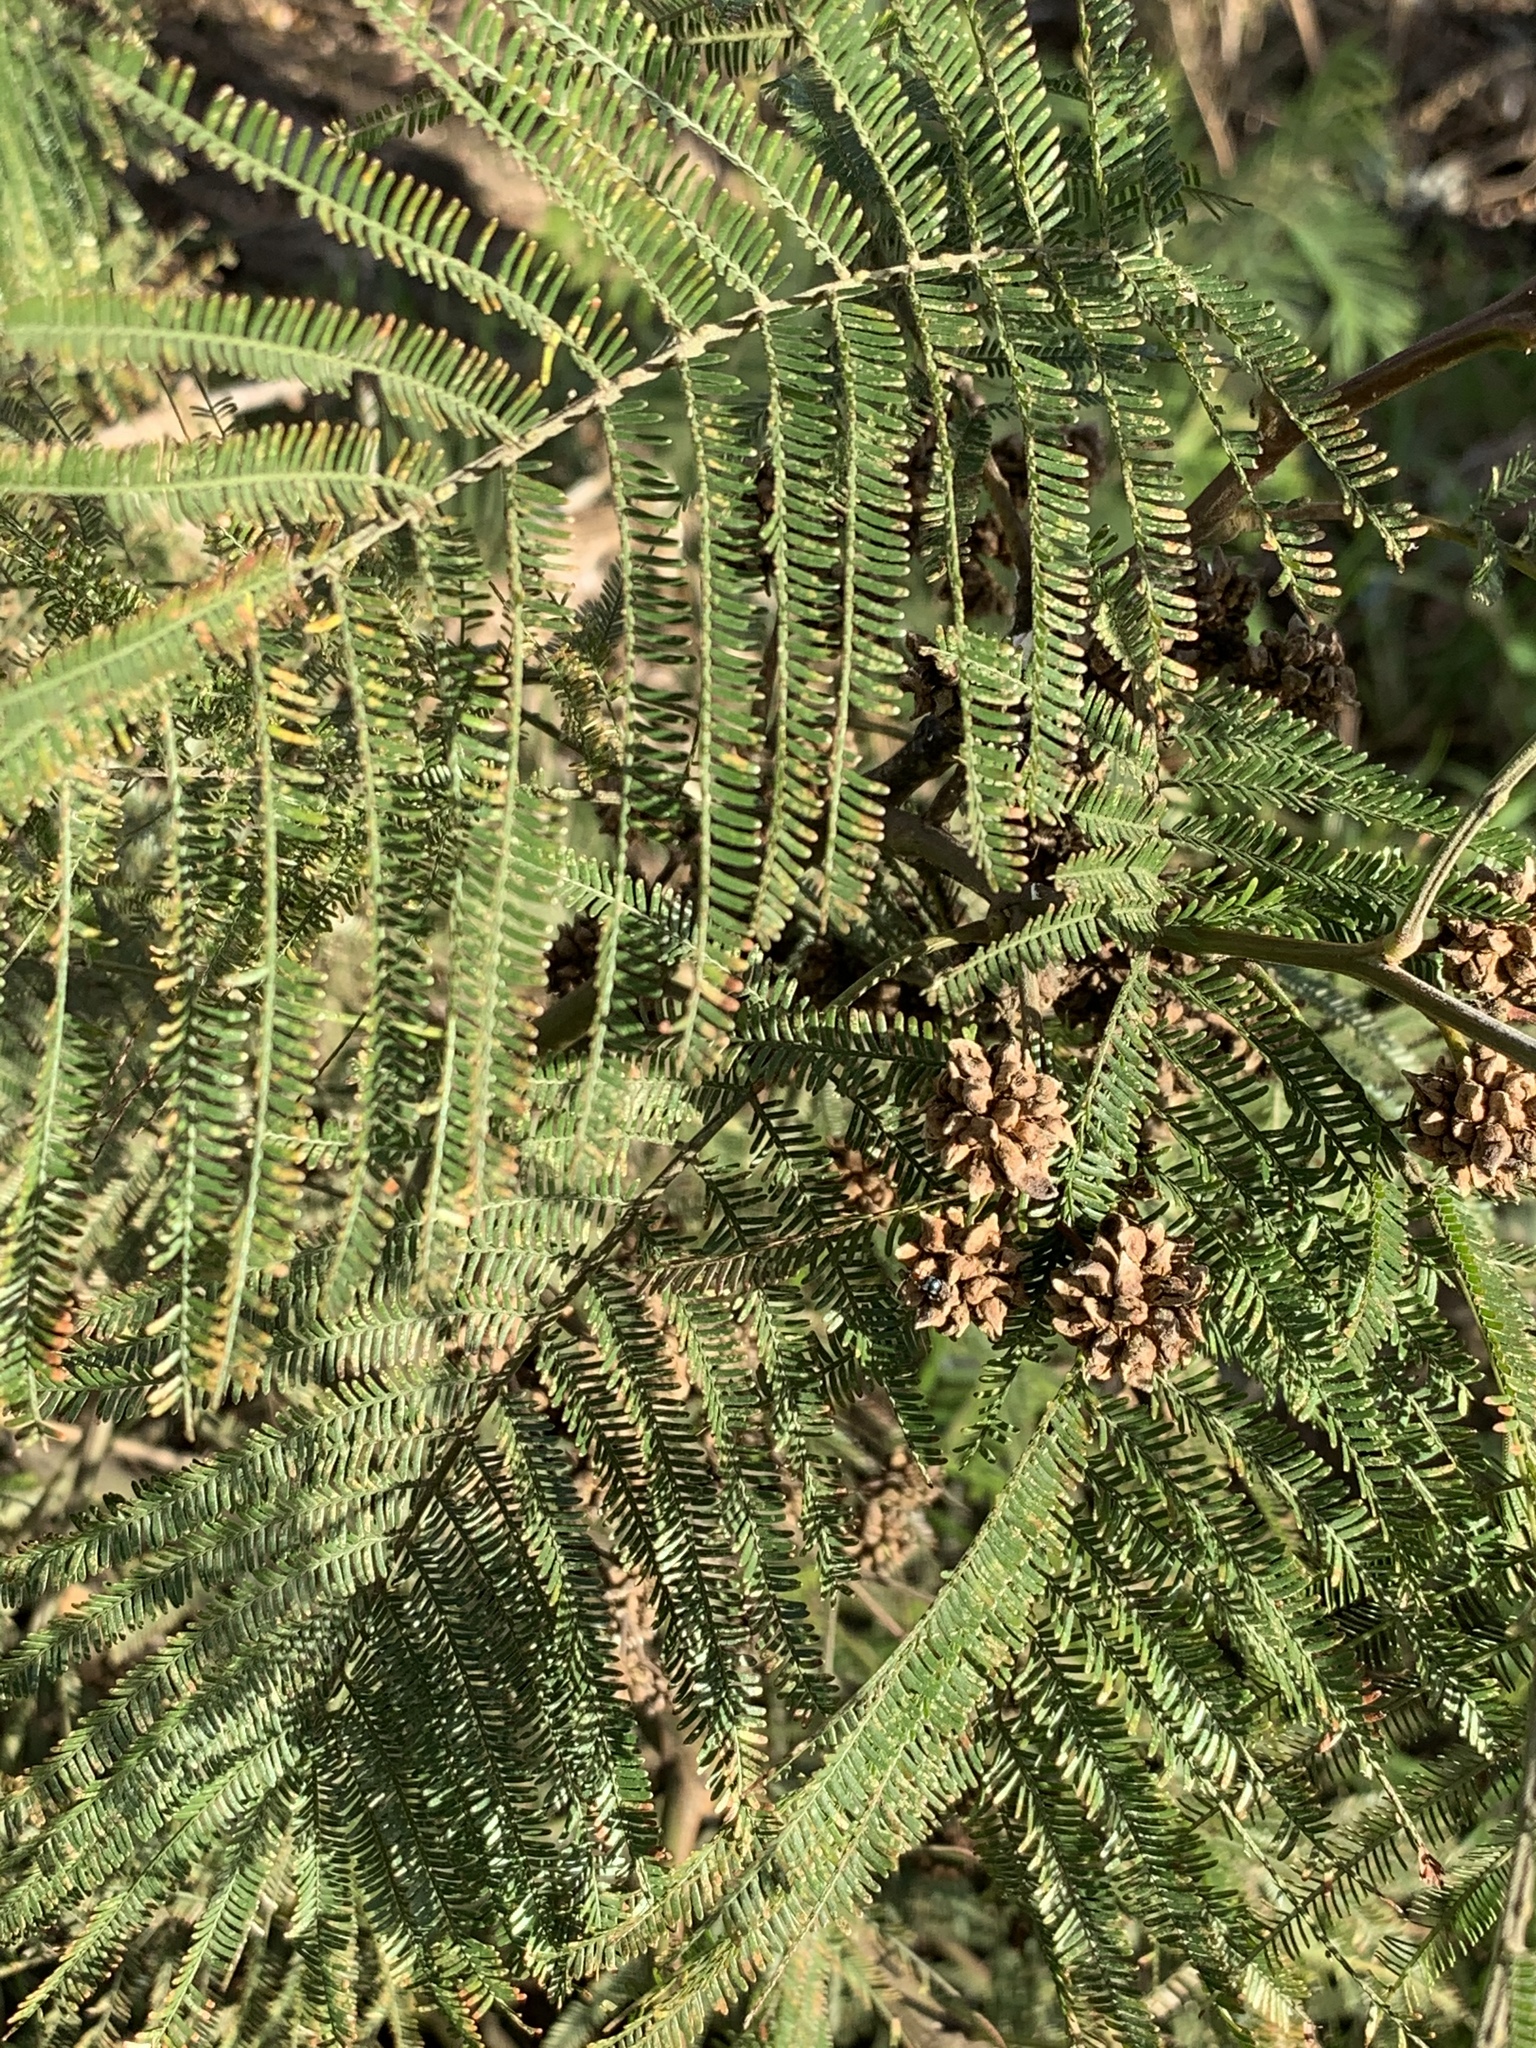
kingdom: Plantae
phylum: Tracheophyta
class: Magnoliopsida
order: Fabales
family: Fabaceae
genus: Acacia
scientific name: Acacia mearnsii
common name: Black wattle
